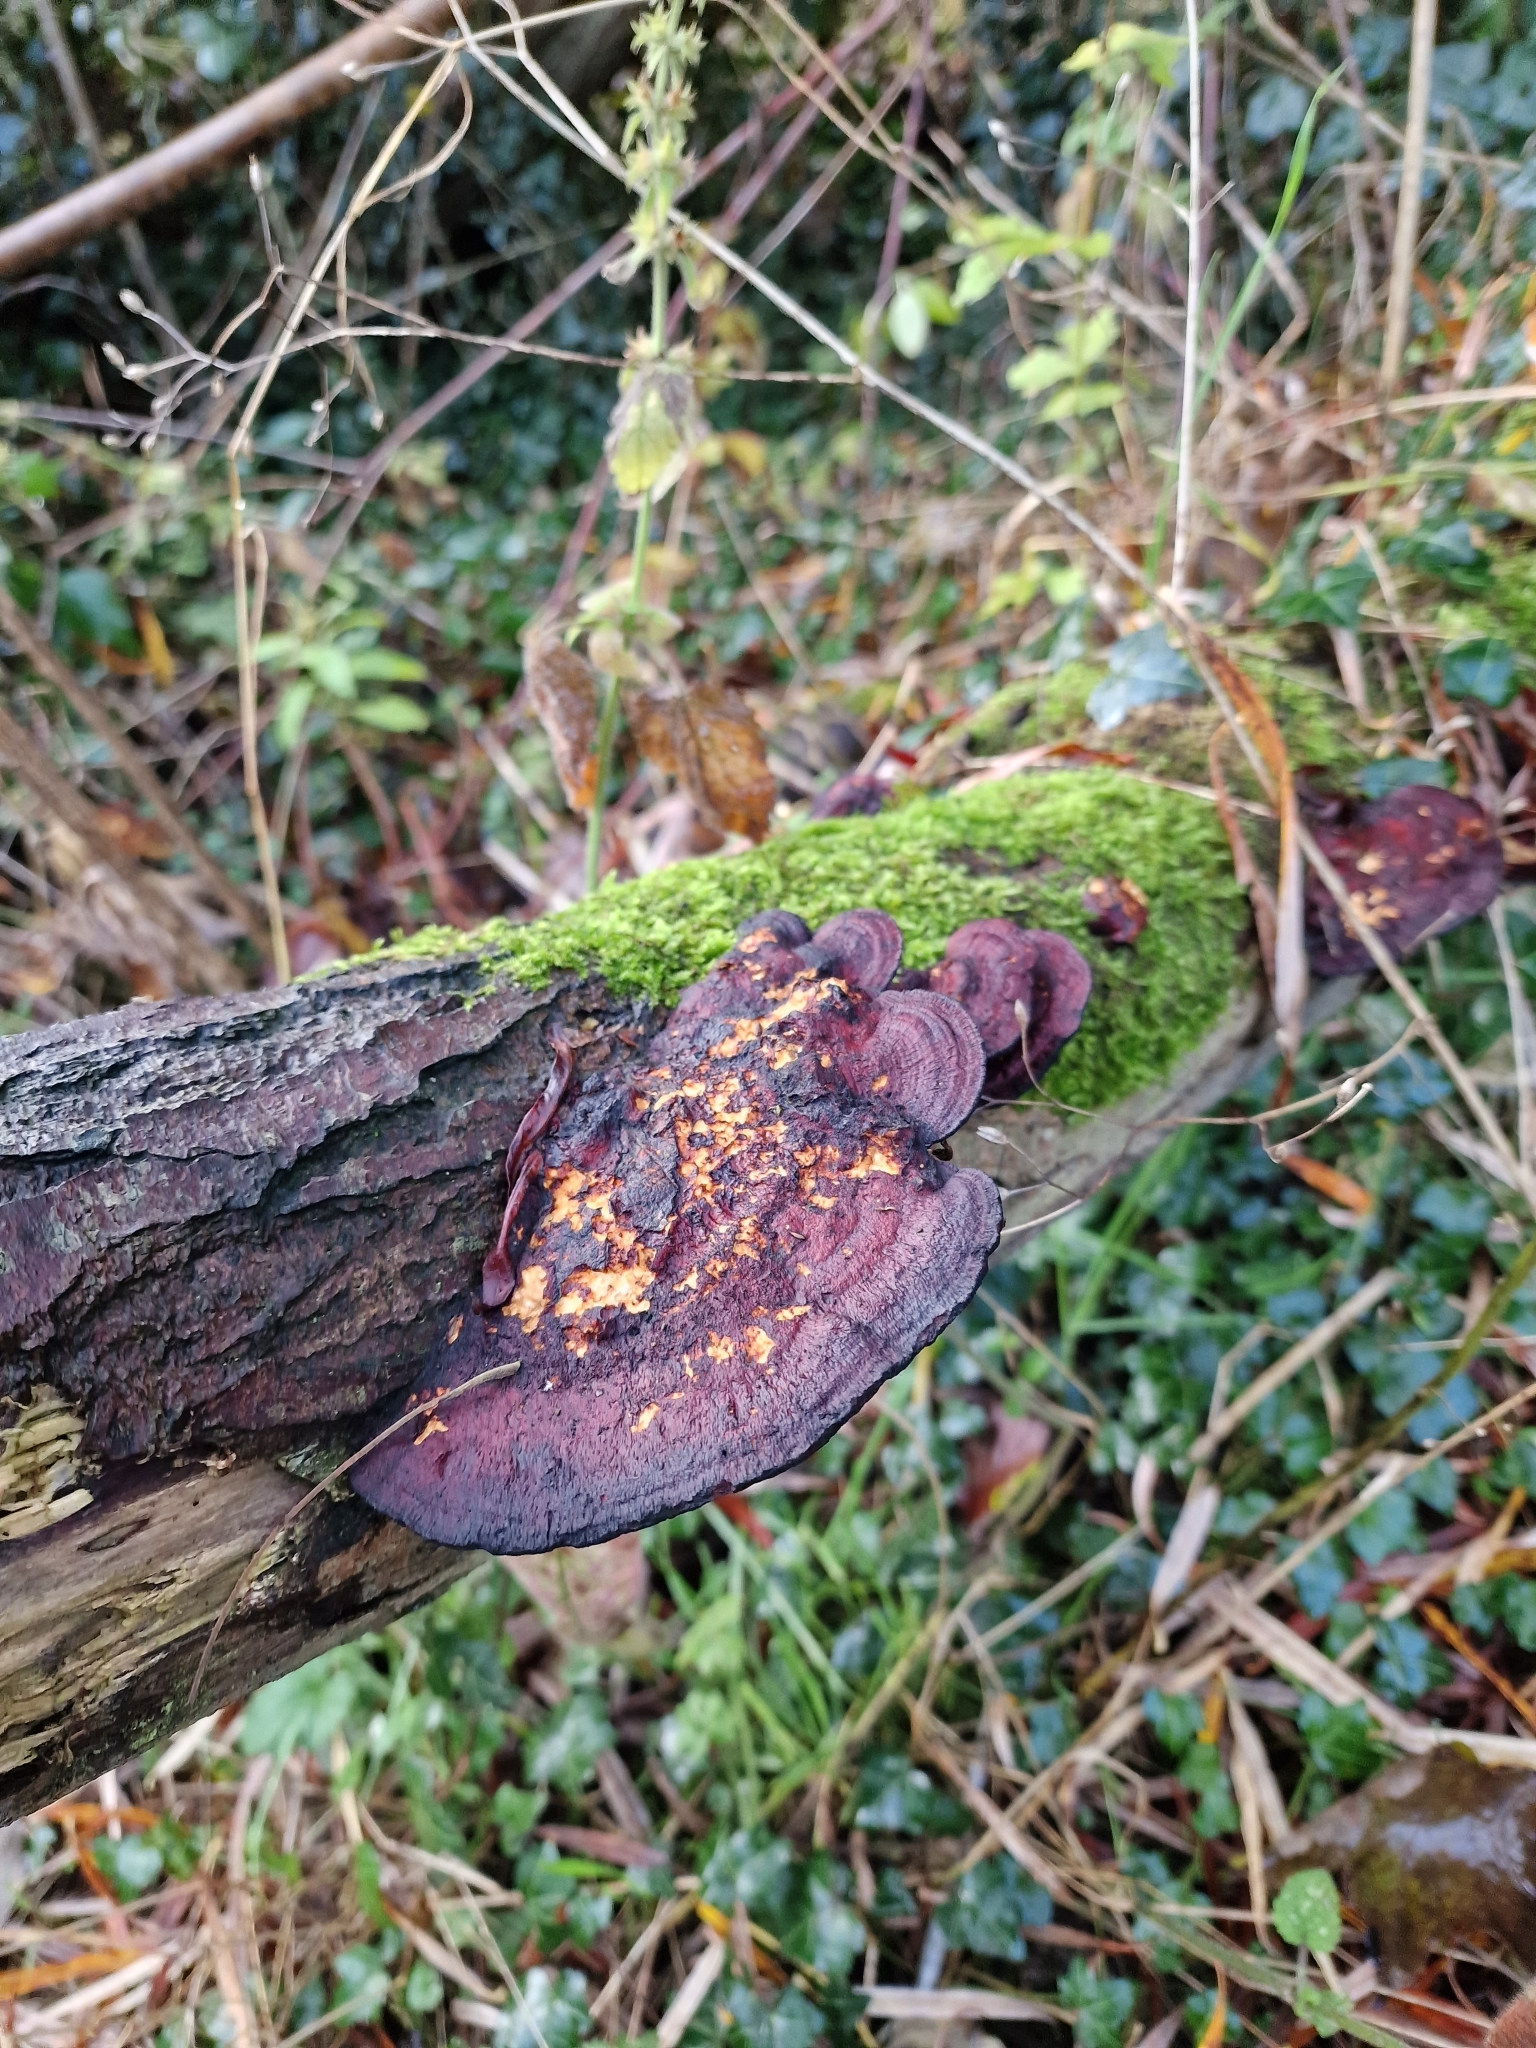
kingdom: Fungi
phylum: Basidiomycota
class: Agaricomycetes
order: Polyporales
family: Polyporaceae
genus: Daedaleopsis
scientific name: Daedaleopsis confragosa
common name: Blushing bracket
